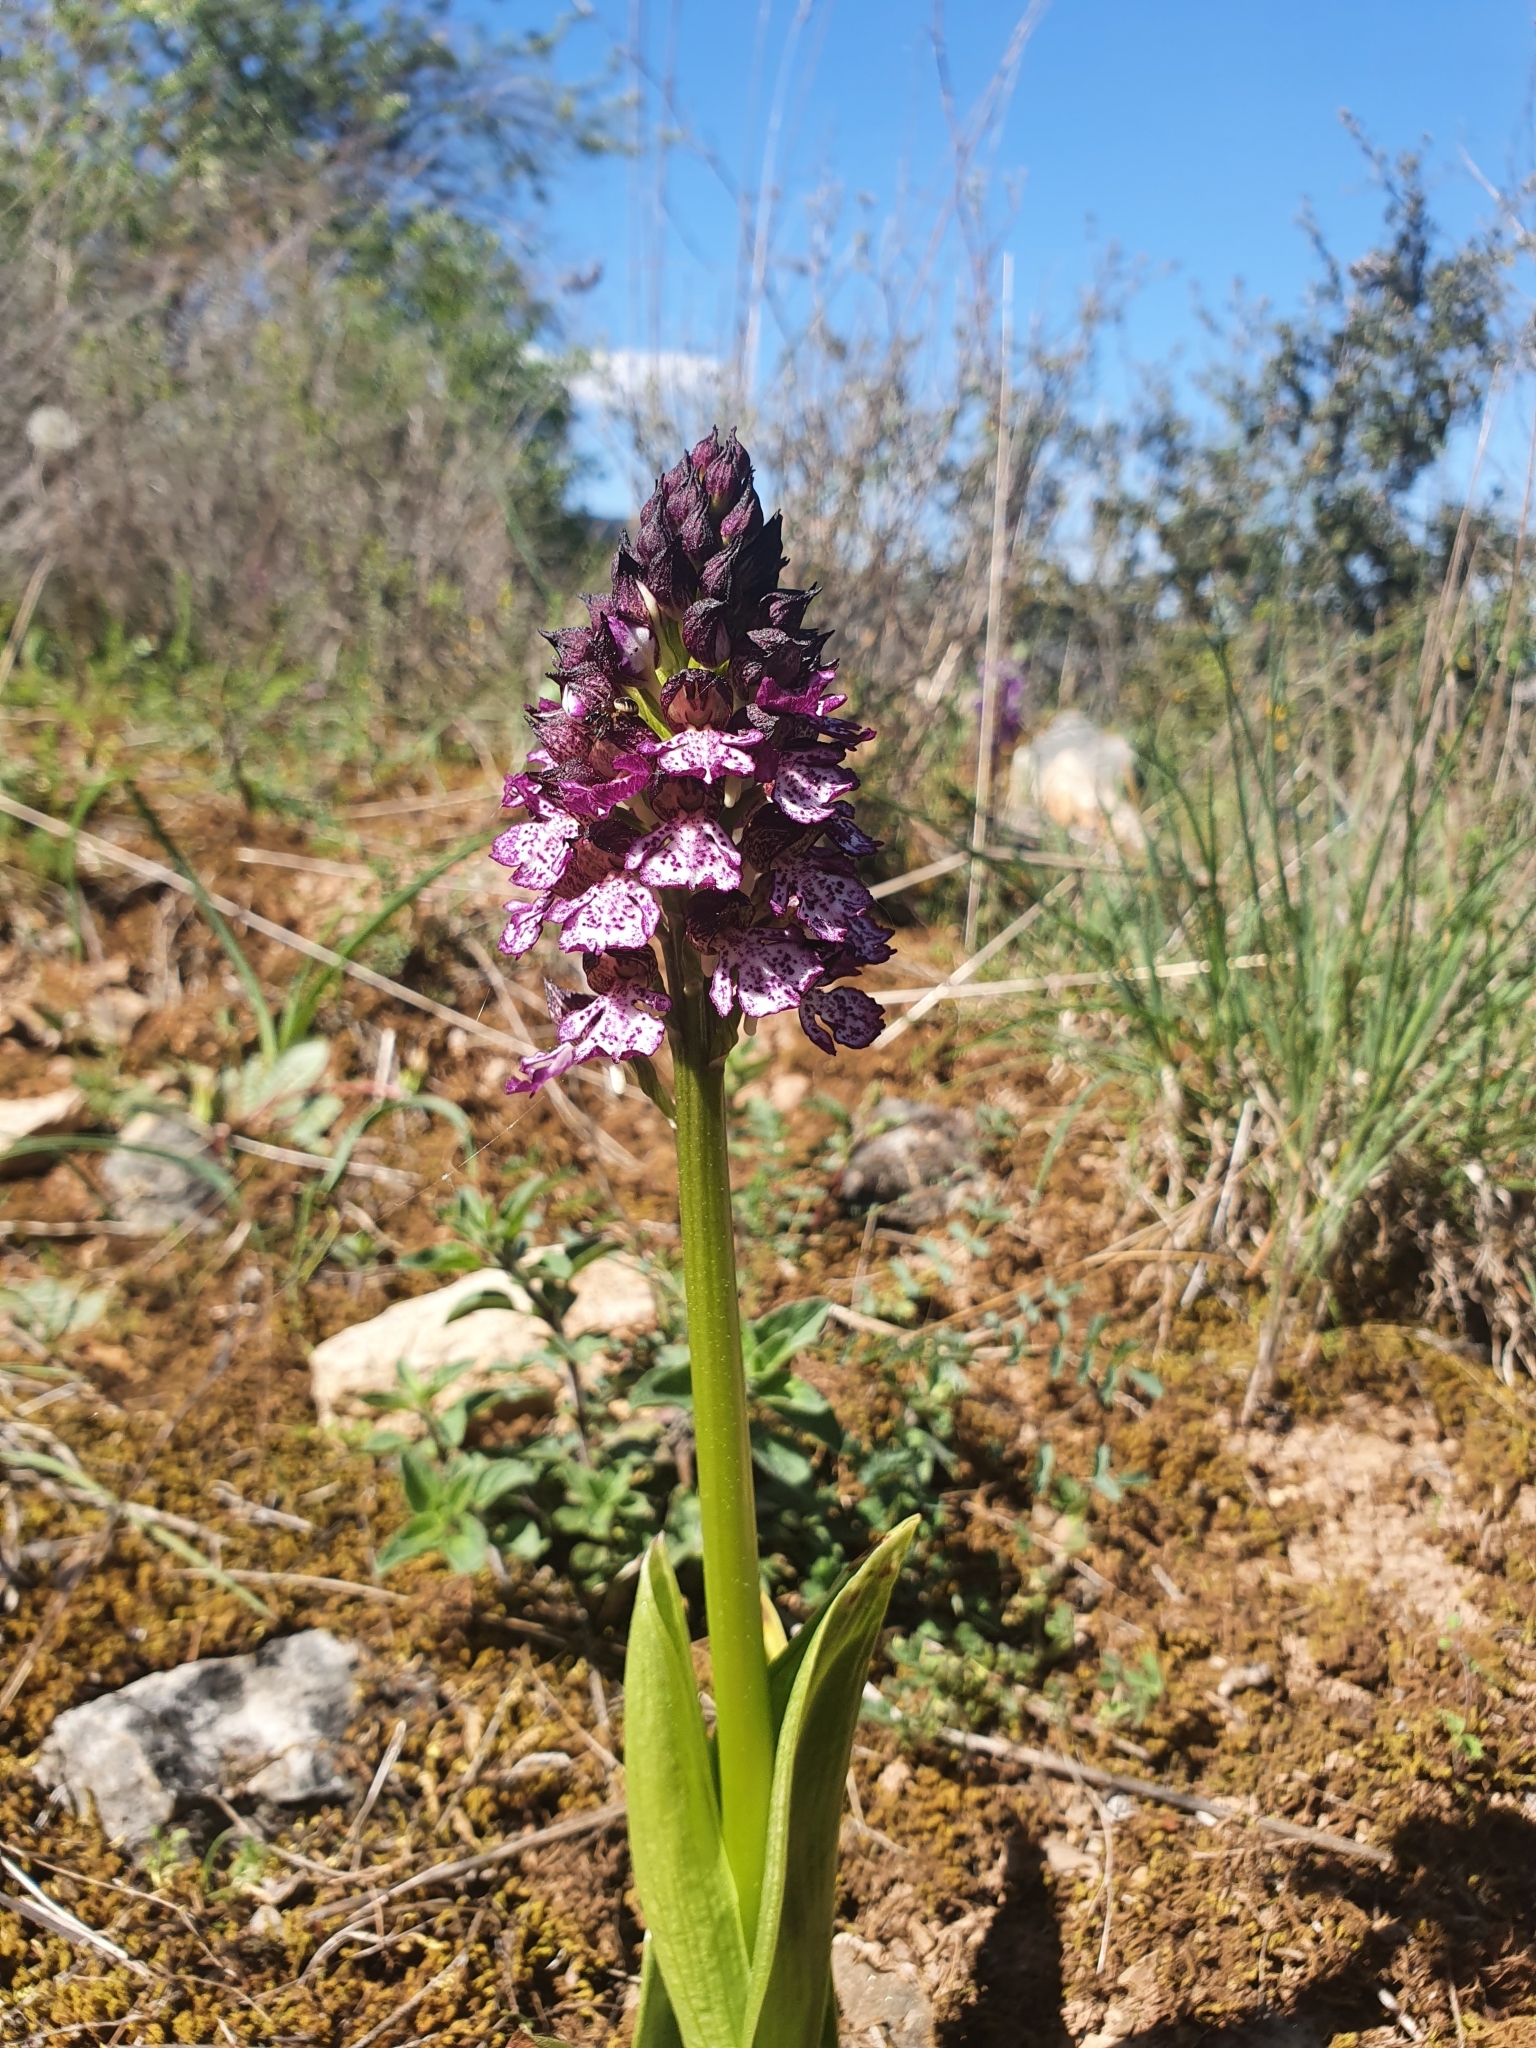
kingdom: Plantae
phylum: Tracheophyta
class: Liliopsida
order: Asparagales
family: Orchidaceae
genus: Orchis
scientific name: Orchis purpurea
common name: Lady orchid
